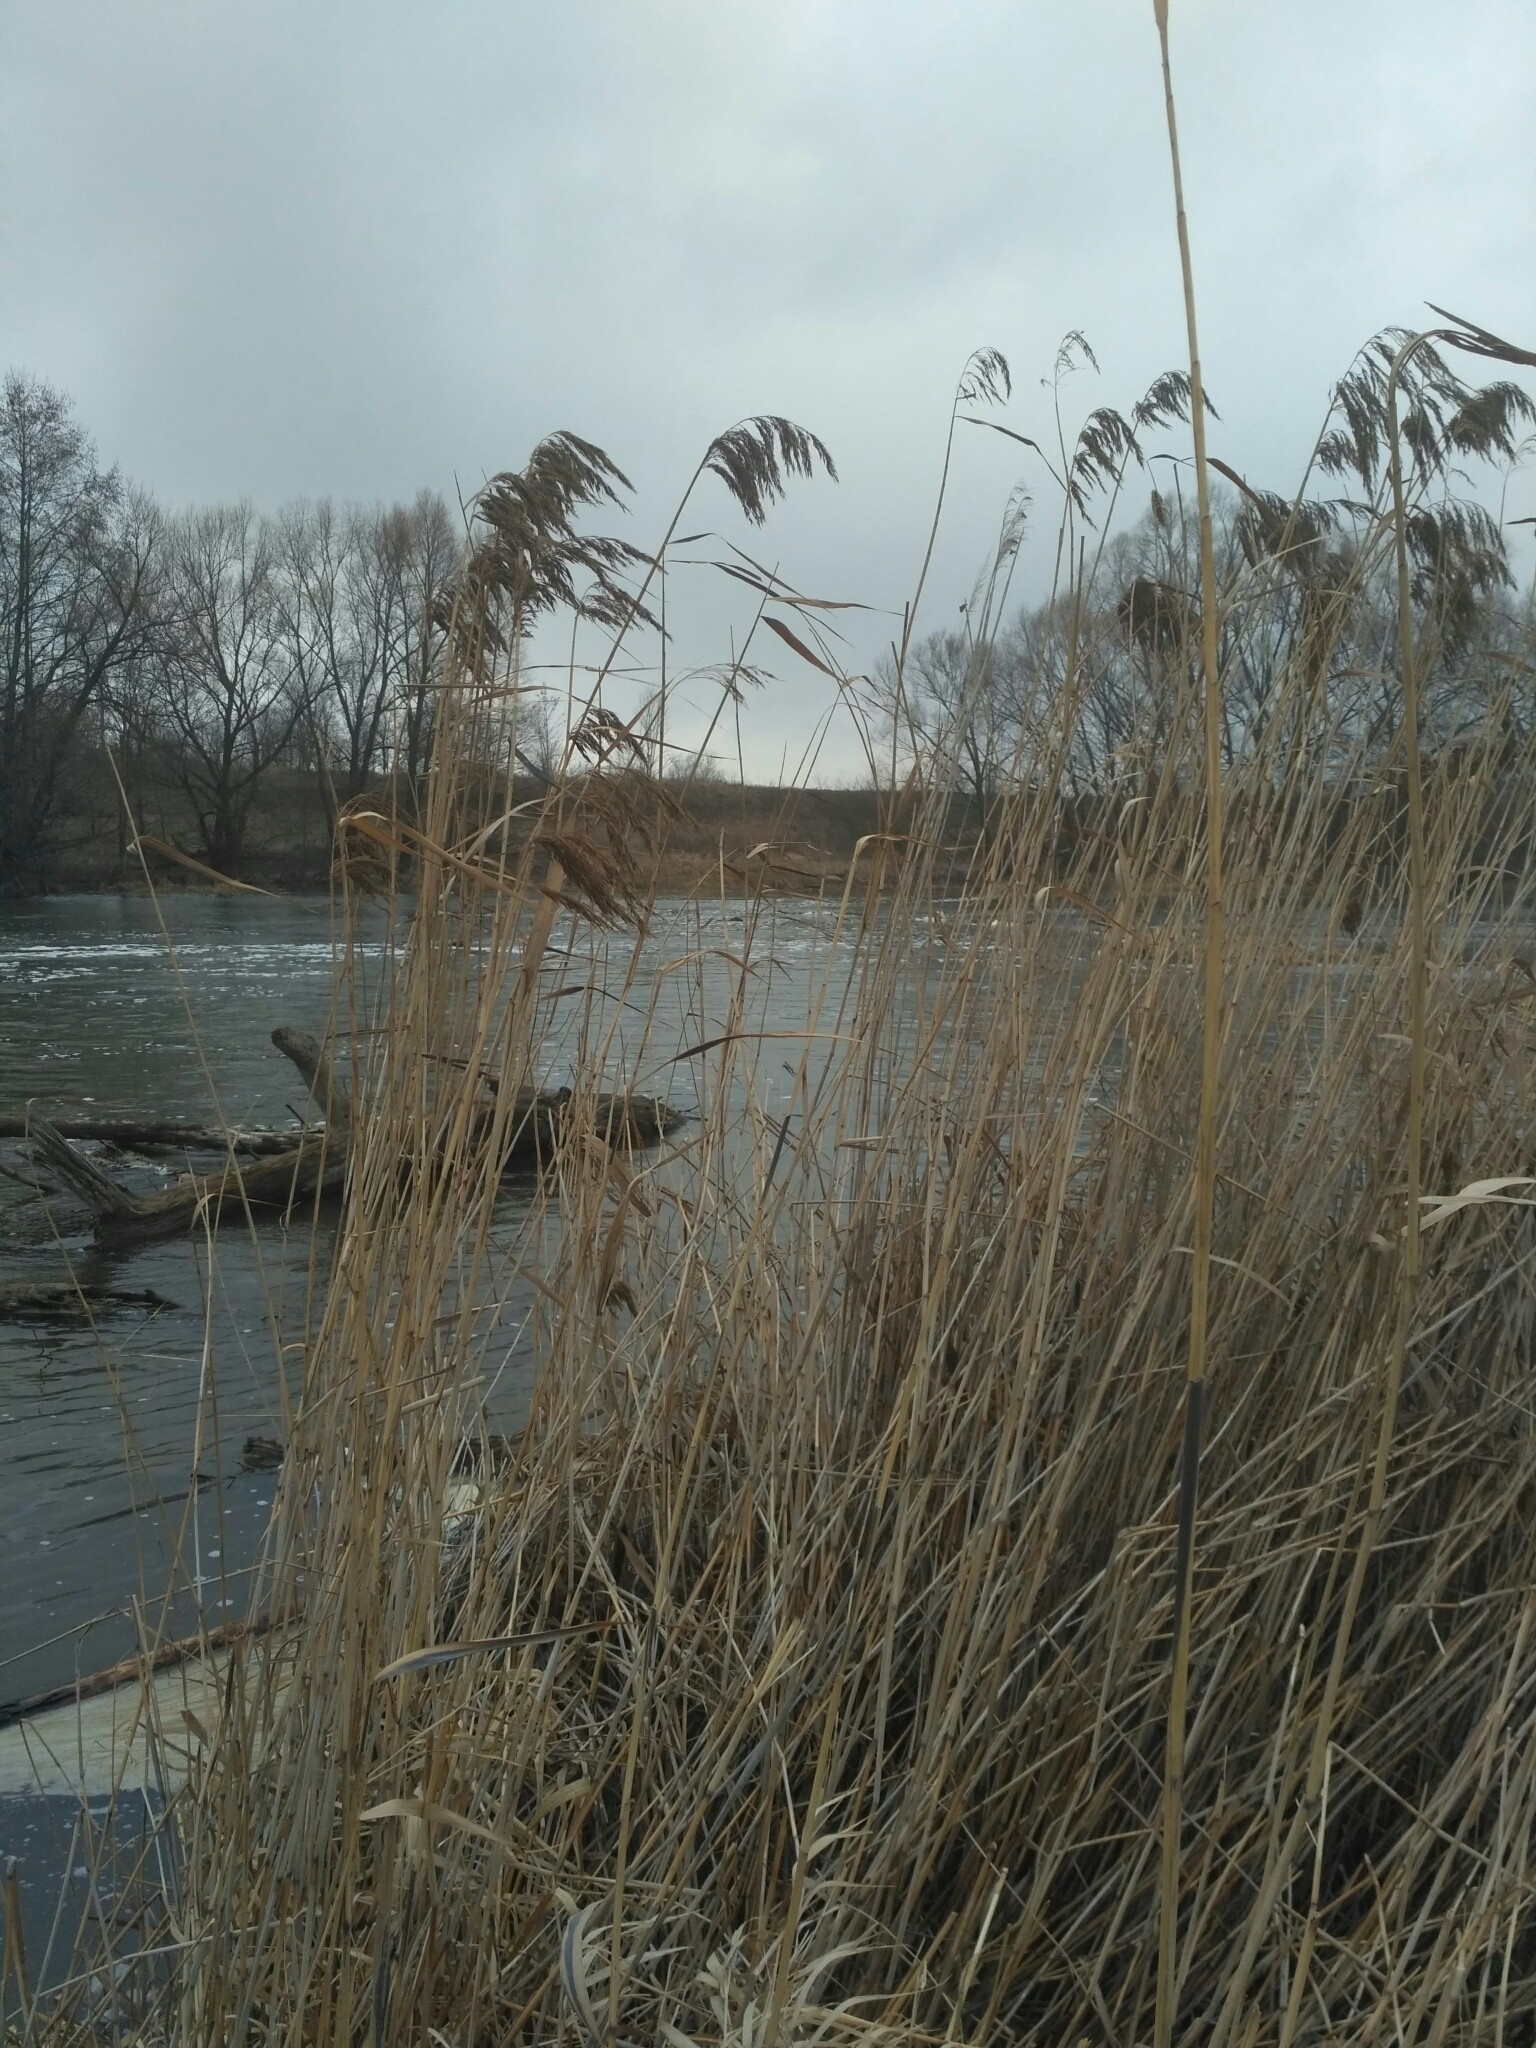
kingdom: Plantae
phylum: Tracheophyta
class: Liliopsida
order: Poales
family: Poaceae
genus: Phragmites
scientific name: Phragmites australis
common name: Common reed
